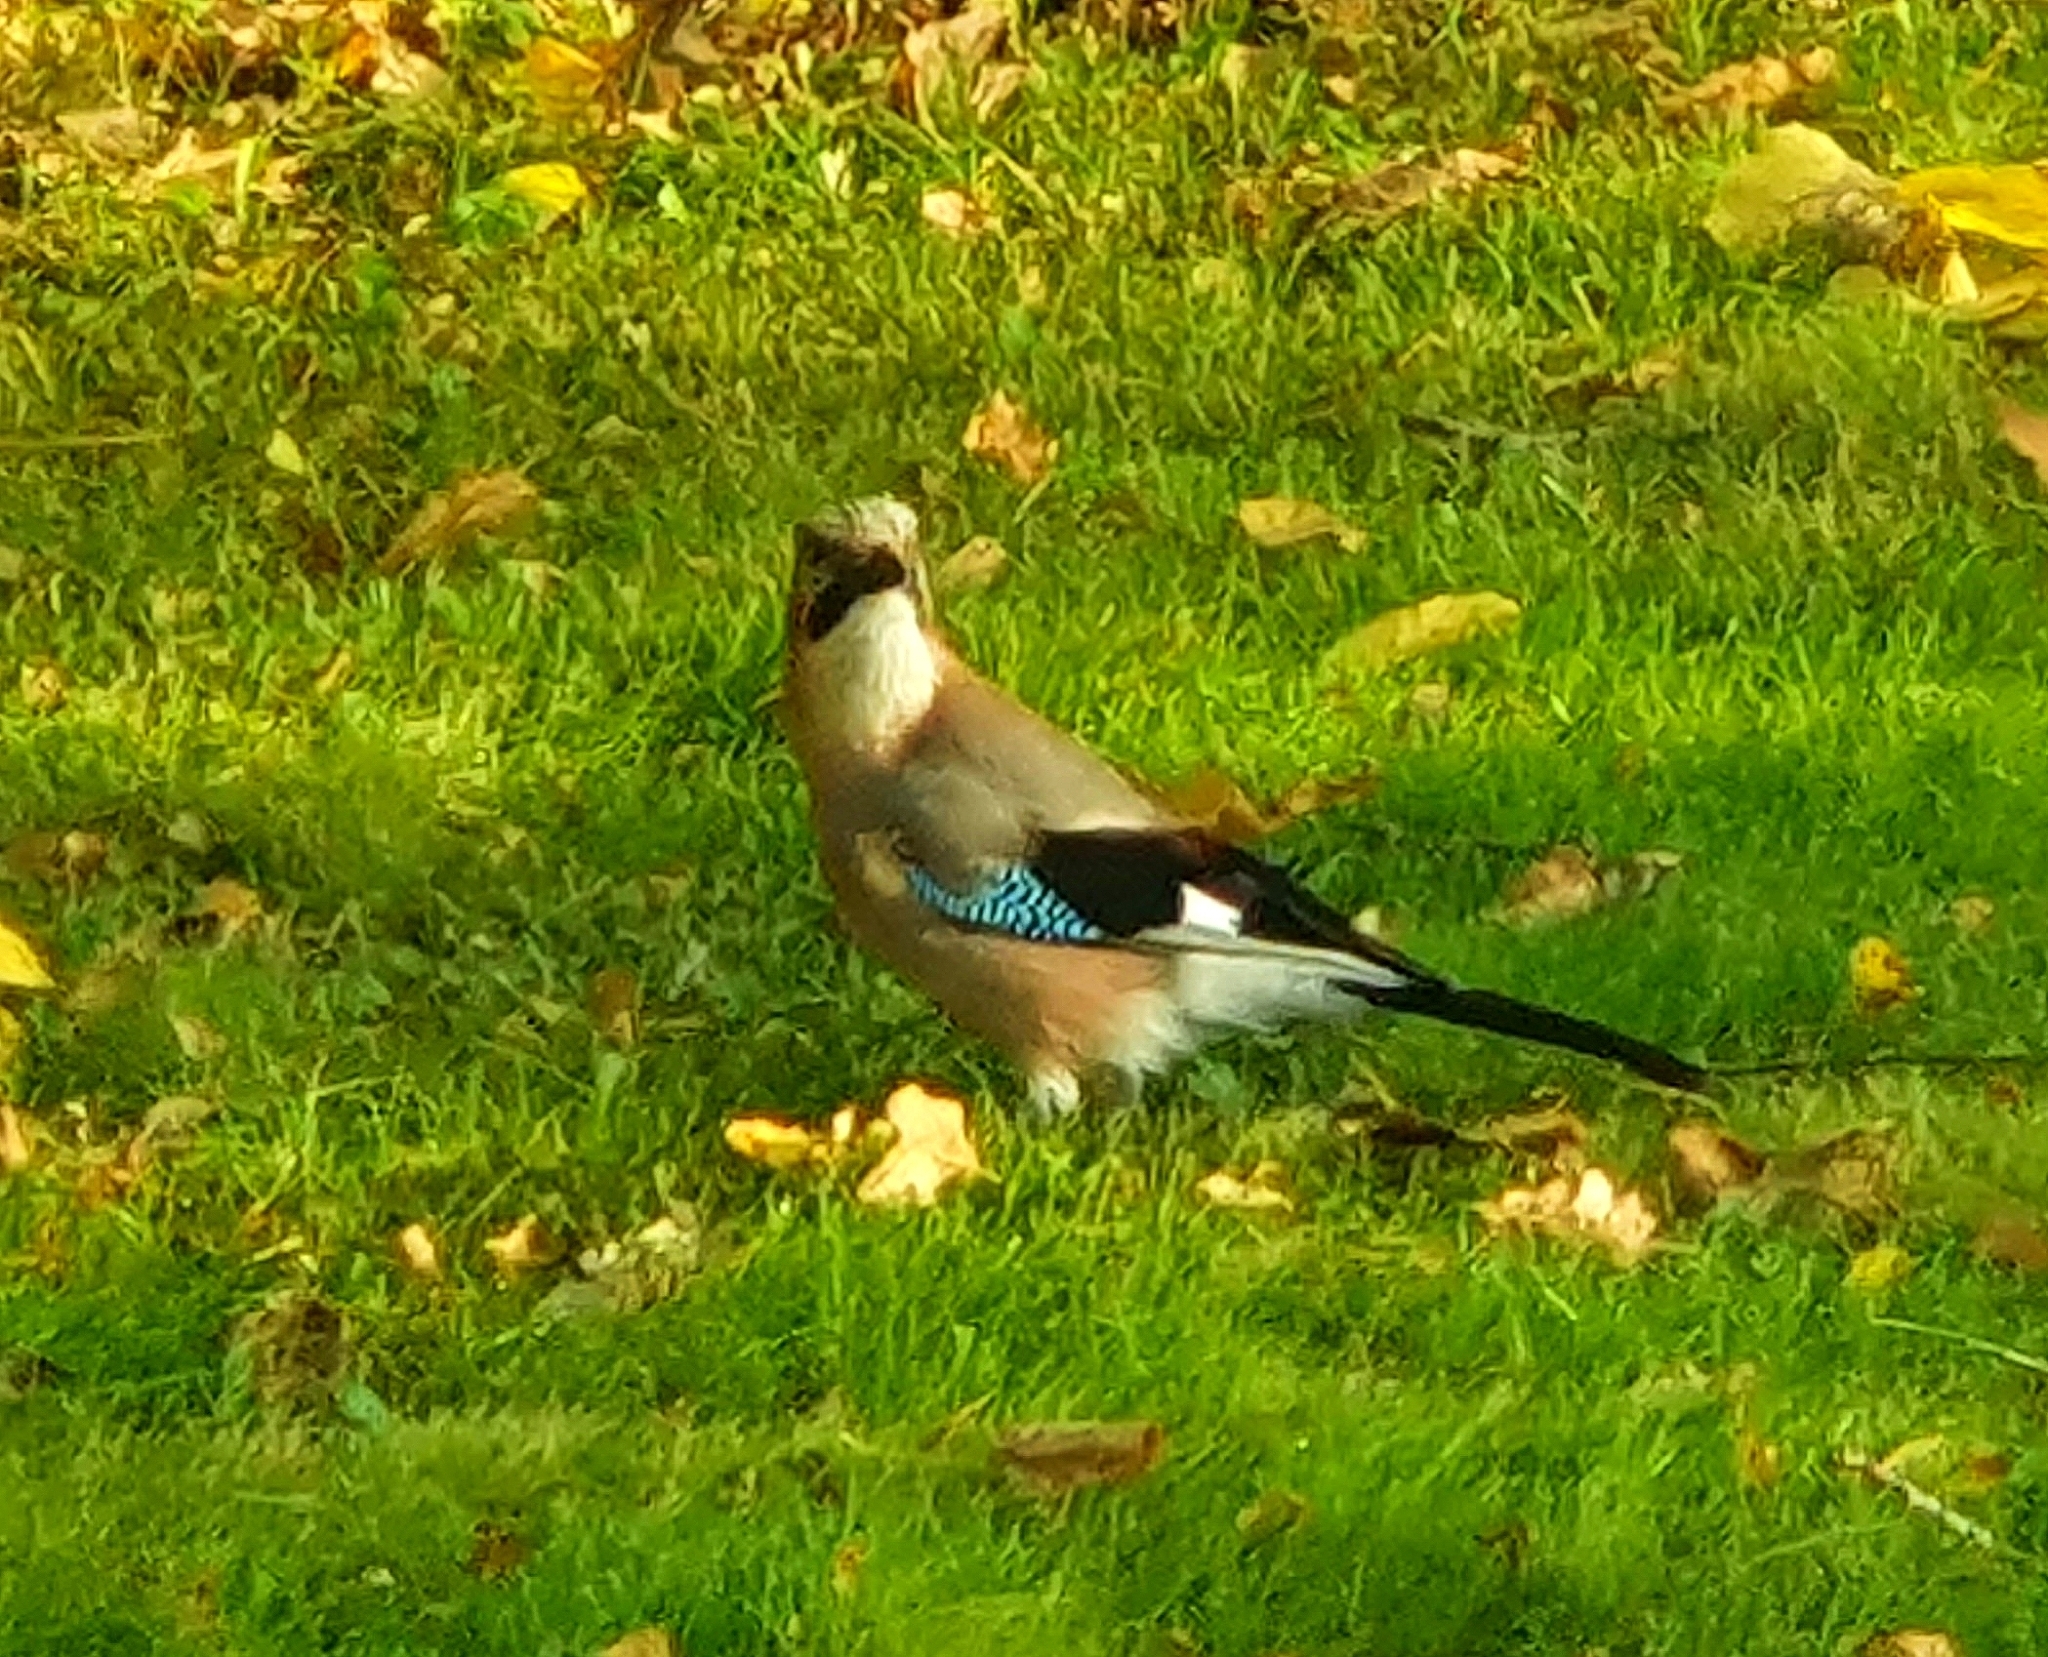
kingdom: Animalia
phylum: Chordata
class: Aves
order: Passeriformes
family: Corvidae
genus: Garrulus
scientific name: Garrulus glandarius
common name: Eurasian jay
